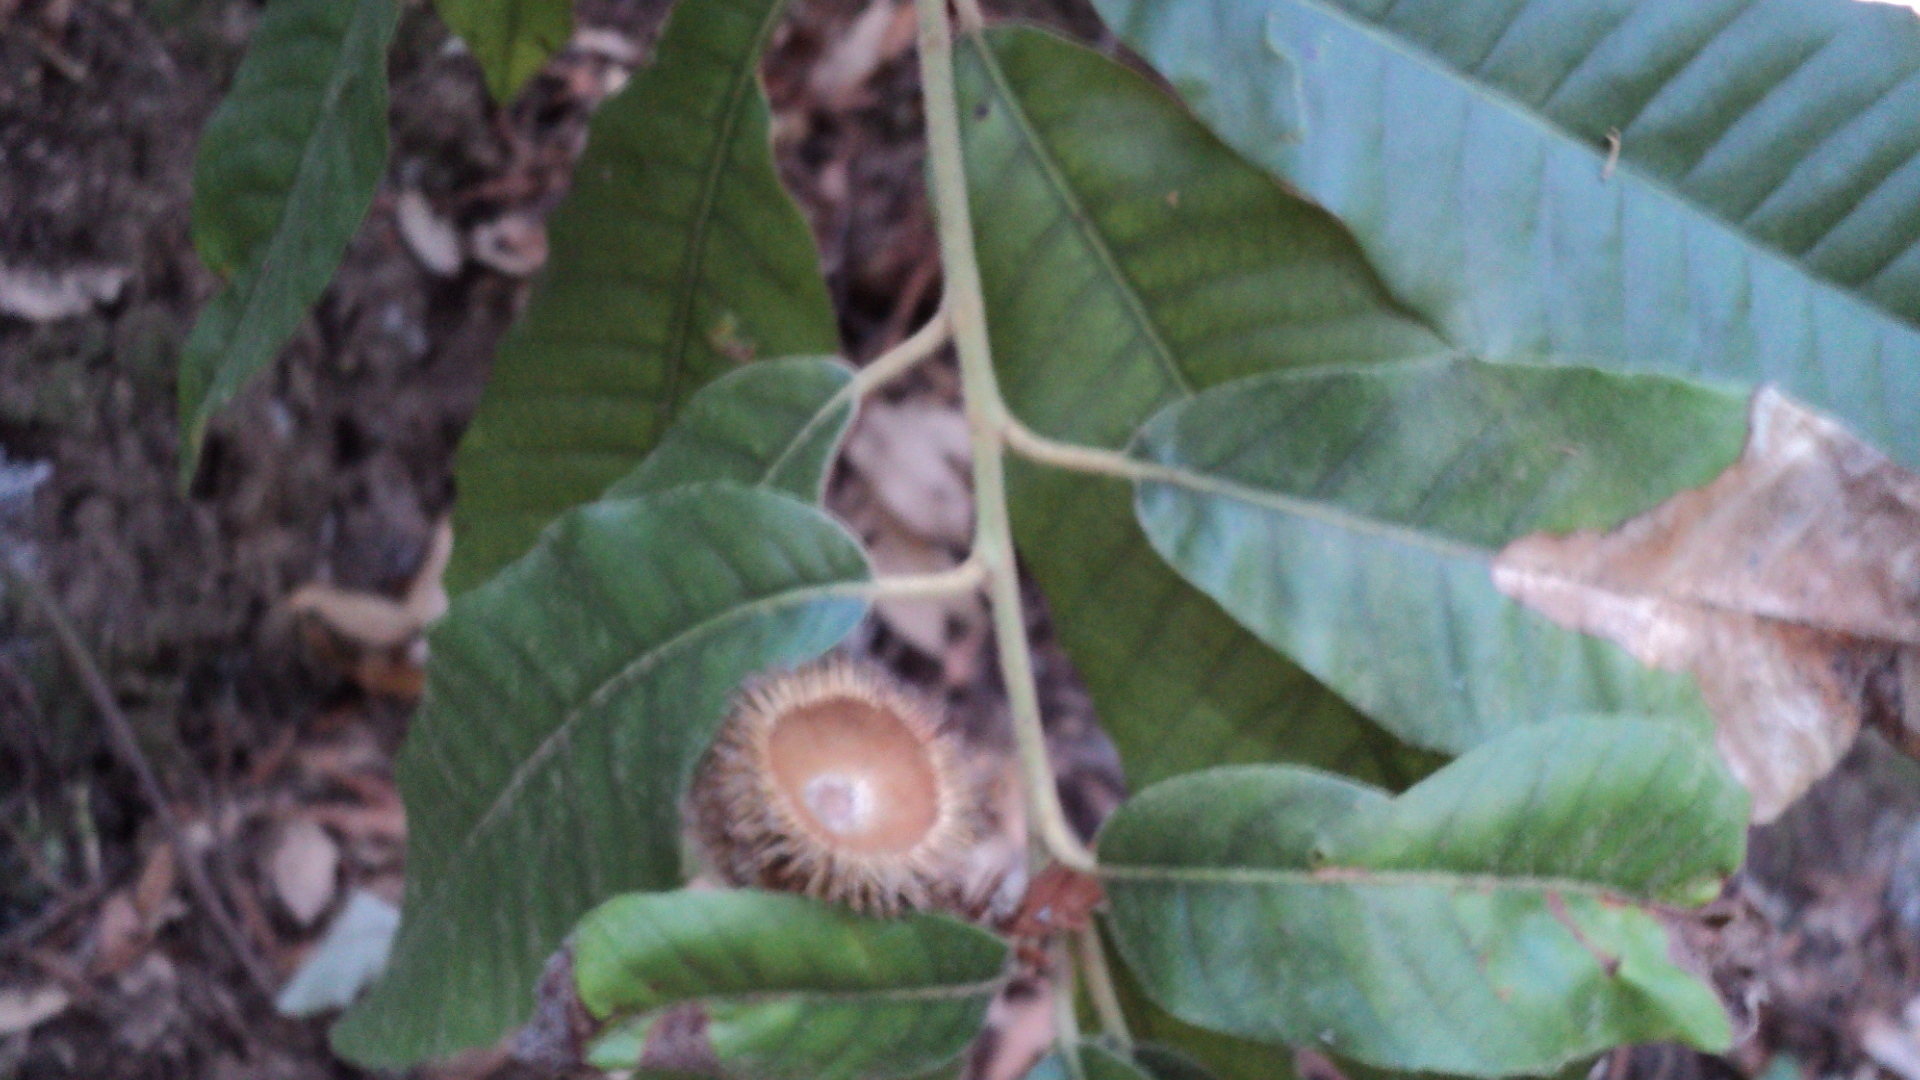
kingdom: Plantae
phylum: Tracheophyta
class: Magnoliopsida
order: Fagales
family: Fagaceae
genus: Notholithocarpus
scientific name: Notholithocarpus densiflorus
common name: Tan bark oak
